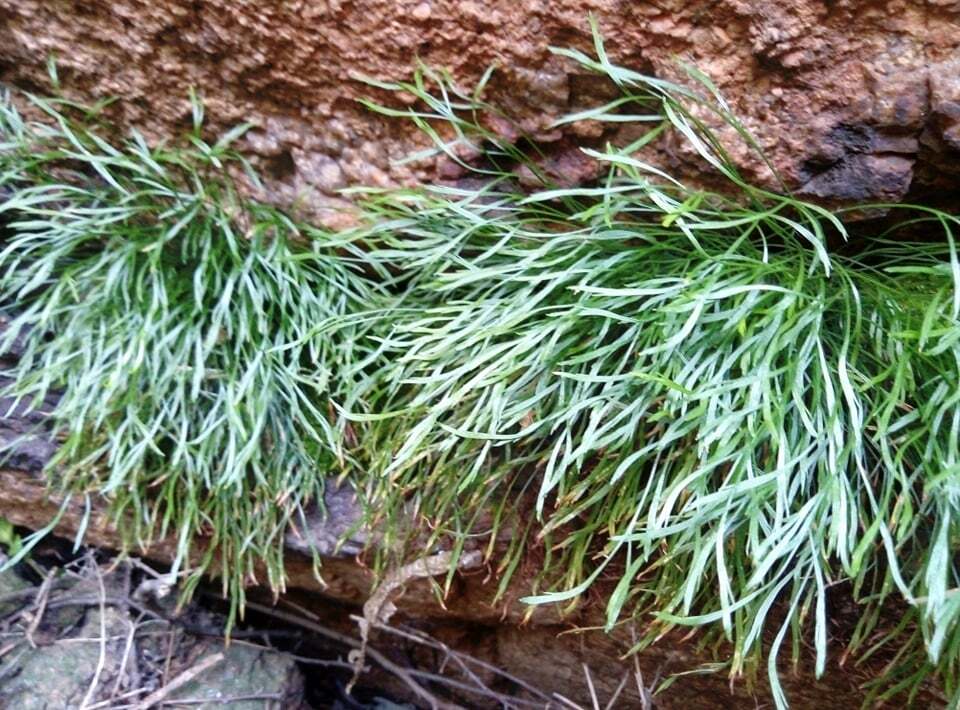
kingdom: Plantae
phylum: Tracheophyta
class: Polypodiopsida
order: Polypodiales
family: Aspleniaceae
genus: Asplenium
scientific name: Asplenium septentrionale
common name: Forked spleenwort
